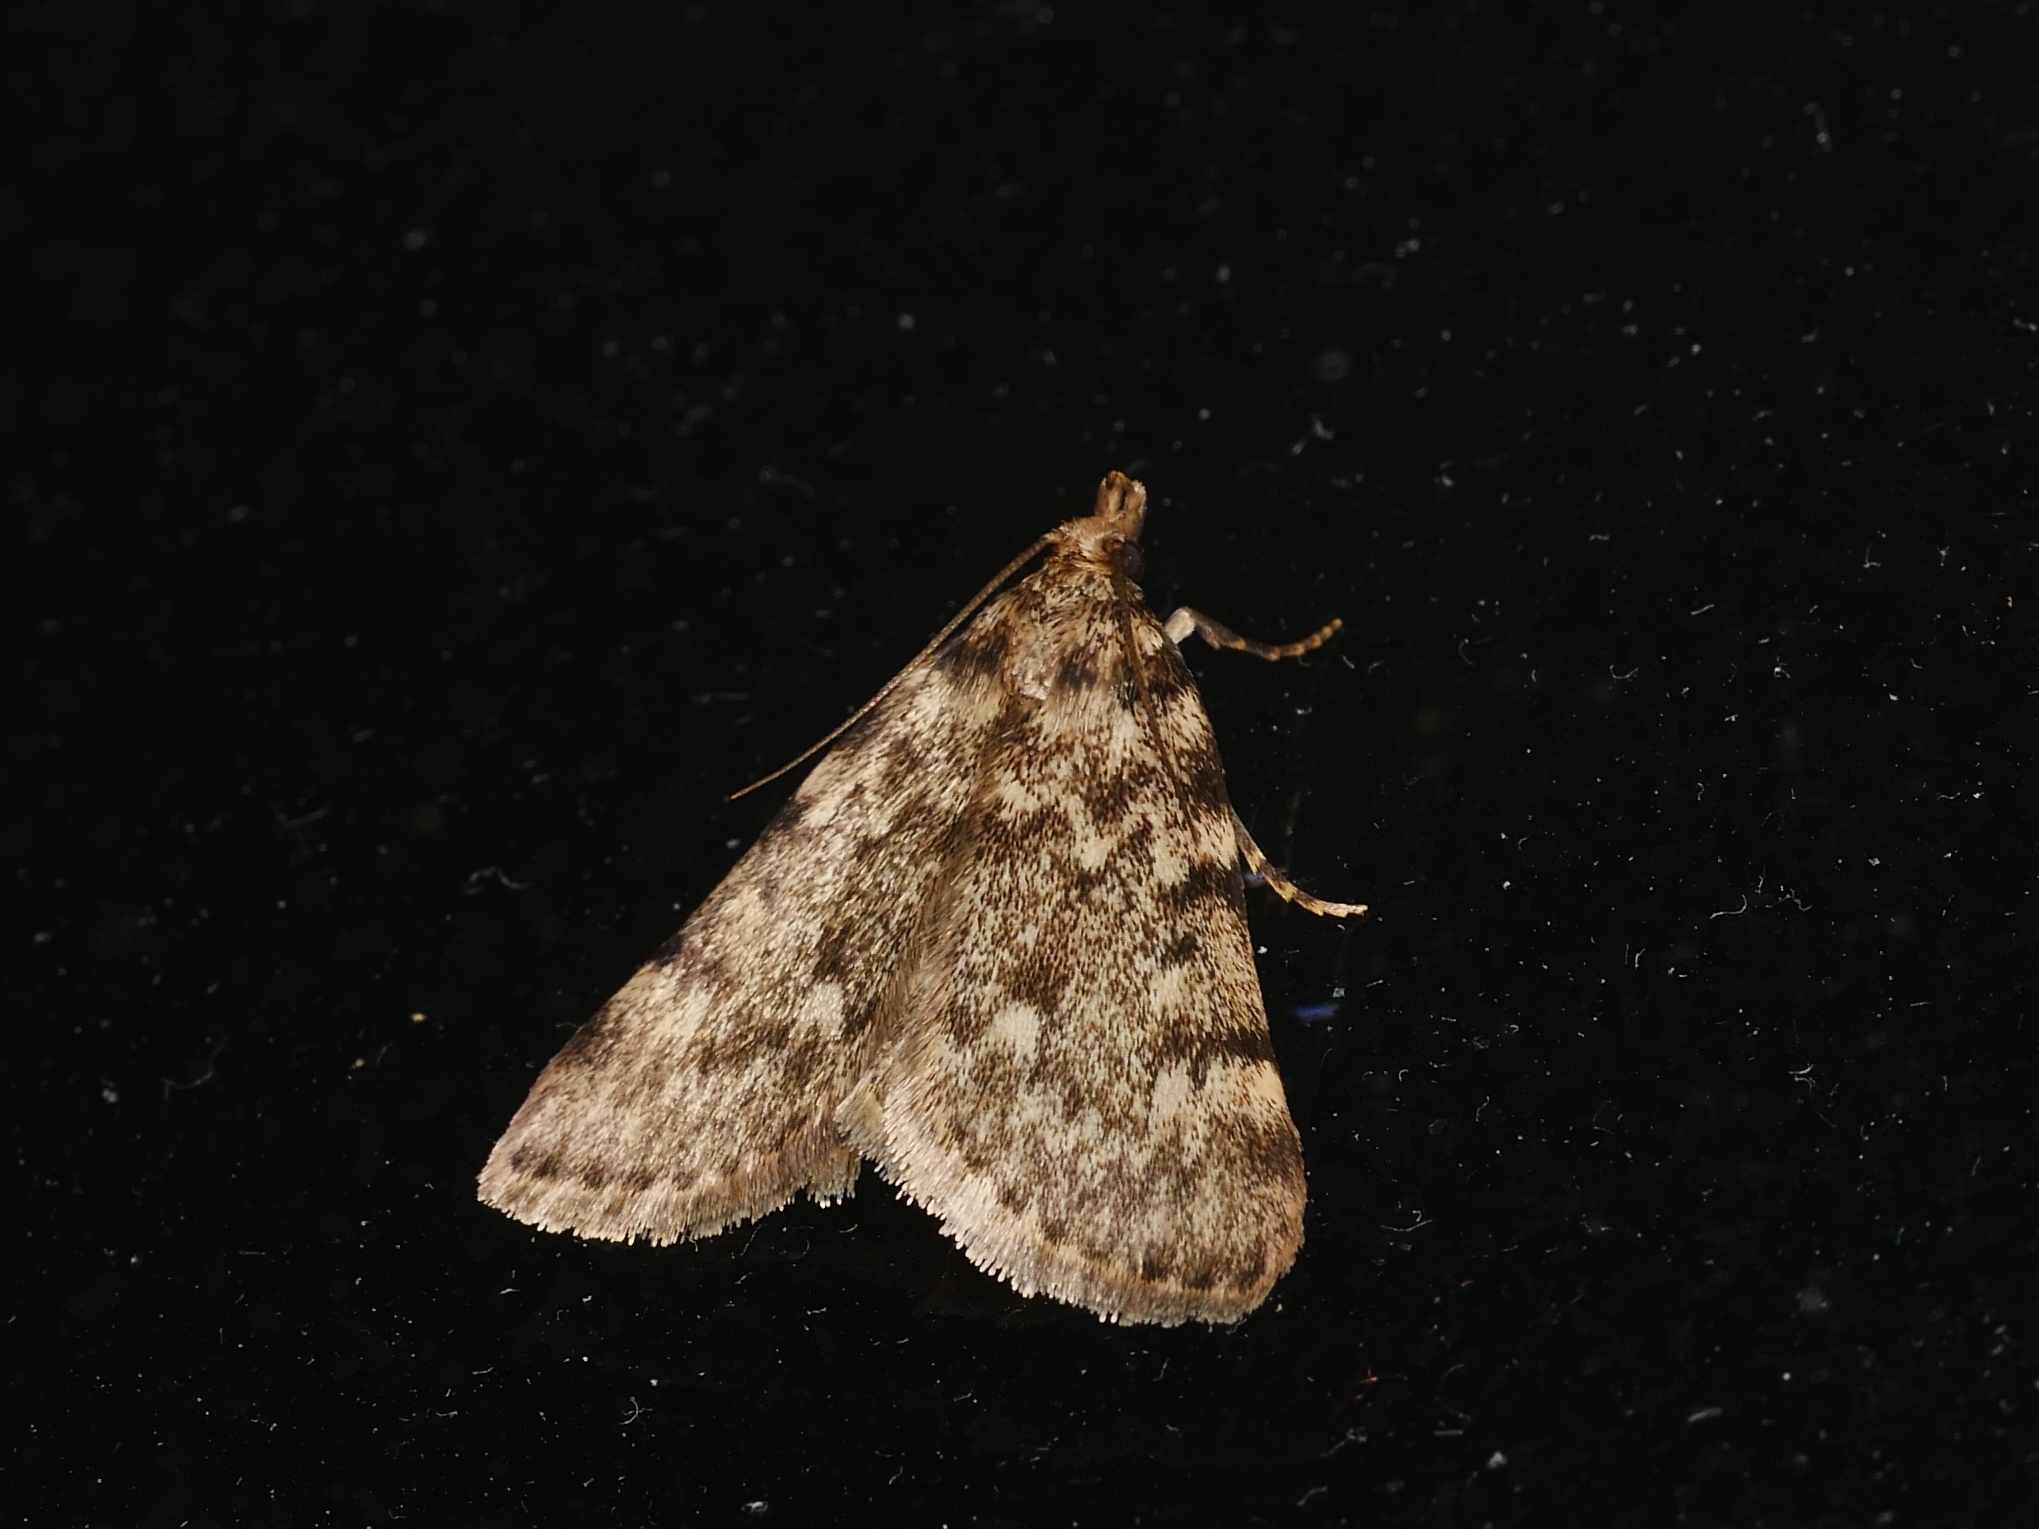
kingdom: Animalia
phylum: Arthropoda
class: Insecta
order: Lepidoptera
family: Pyralidae
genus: Aglossa
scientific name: Aglossa pinguinalis
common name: Large tabby
